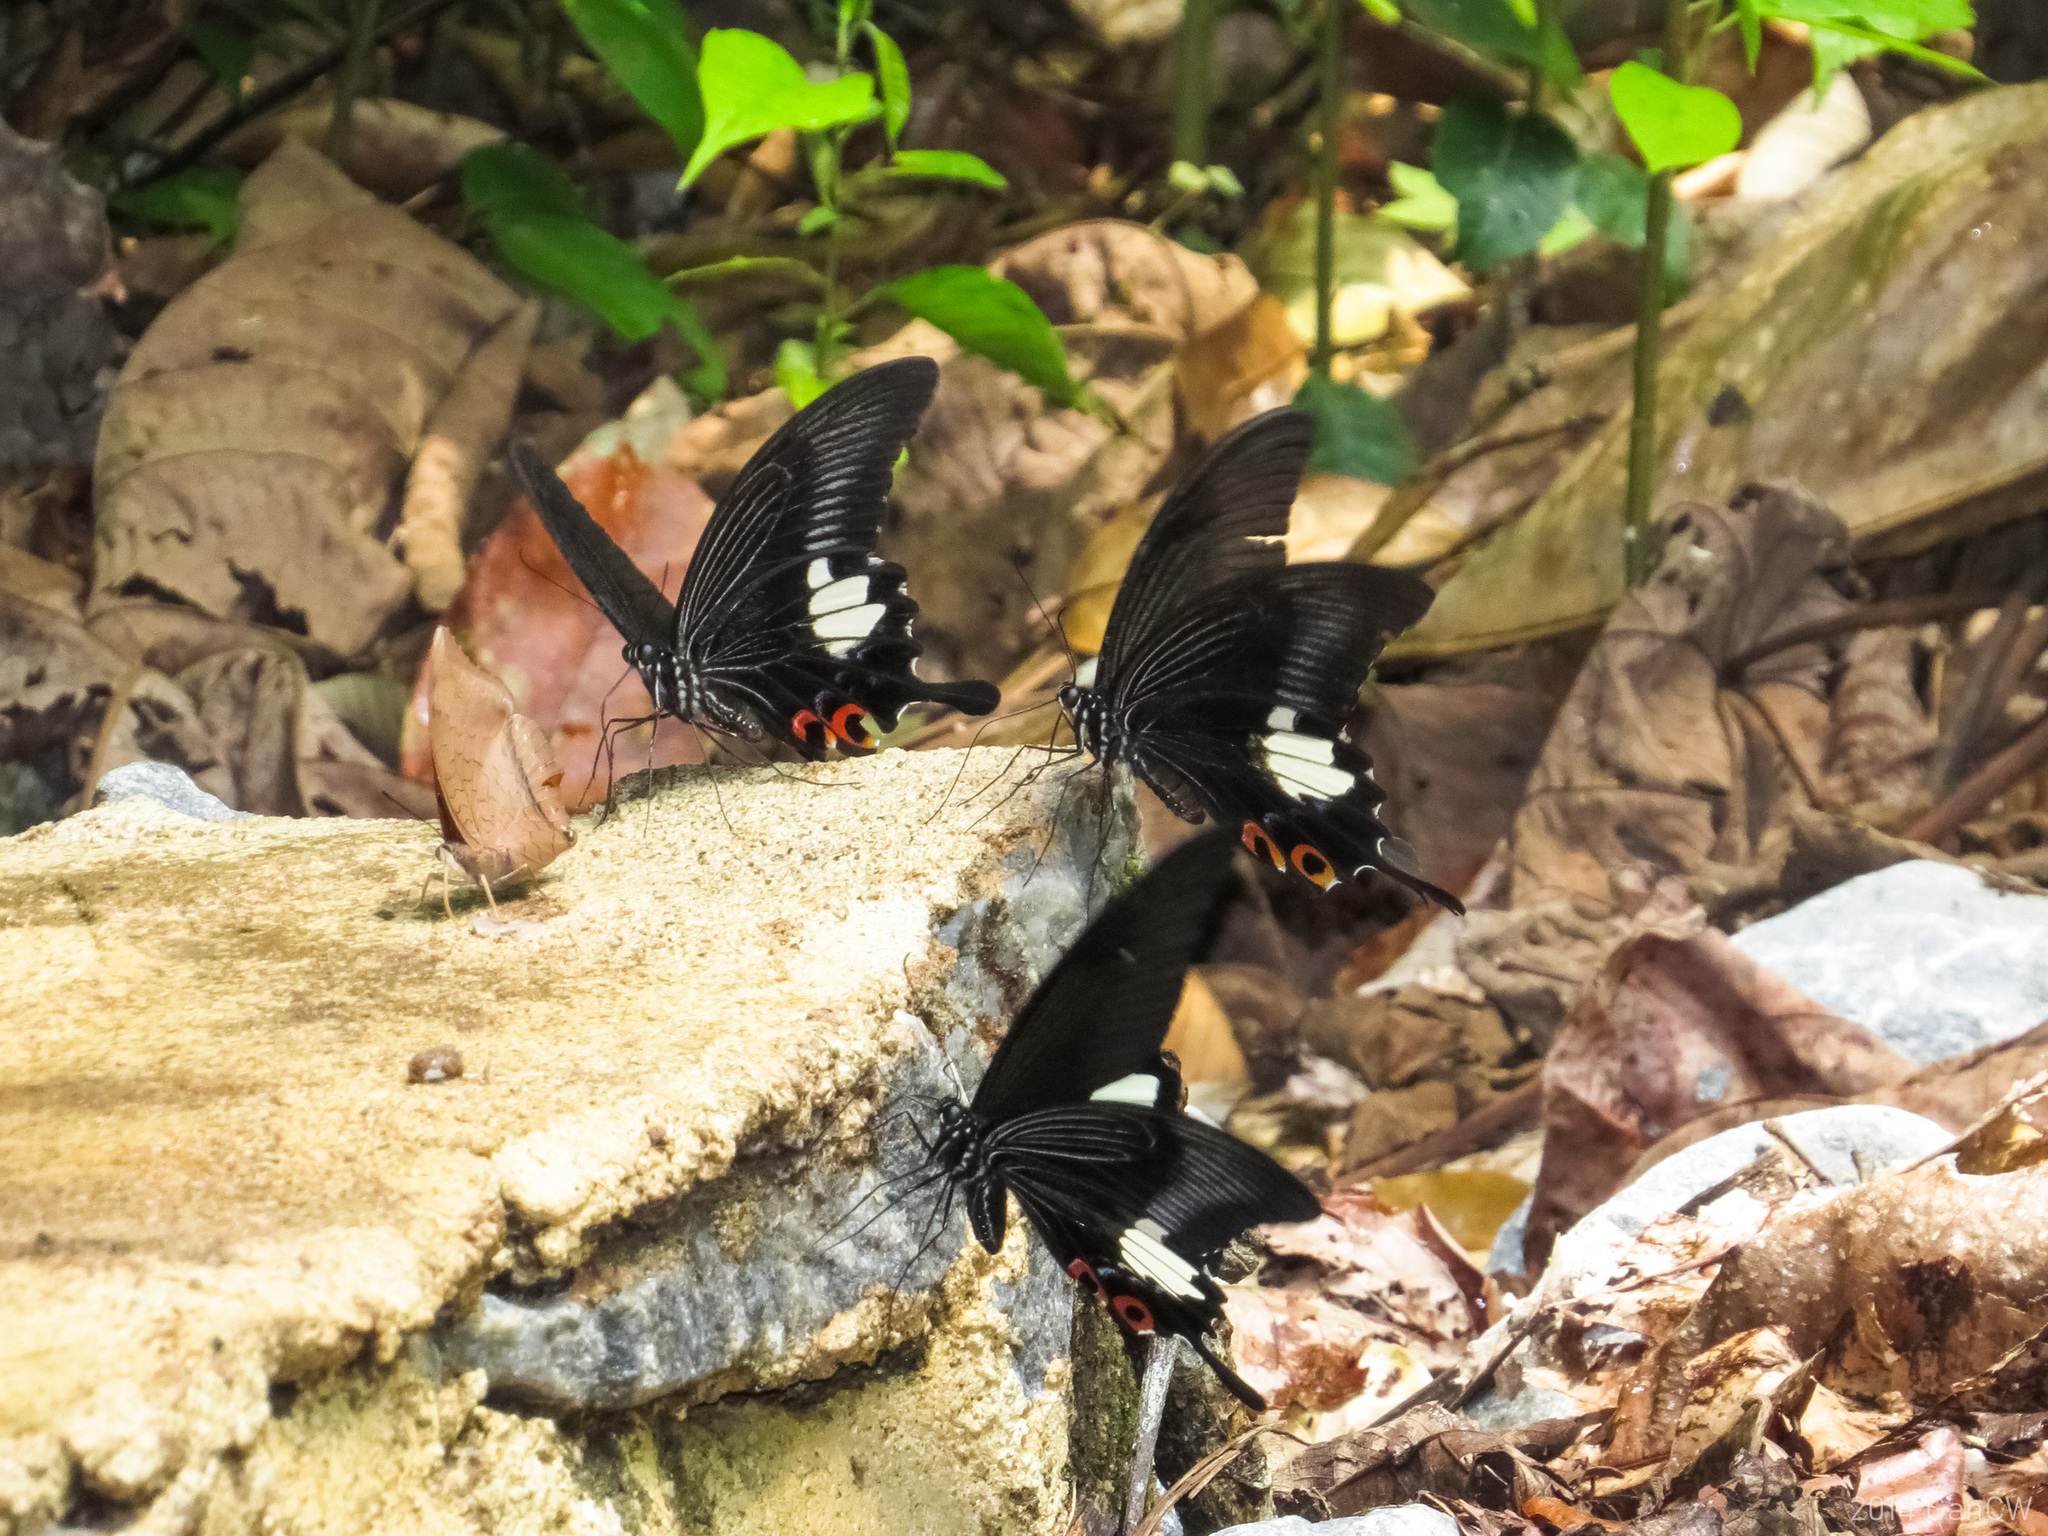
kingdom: Animalia
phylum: Arthropoda
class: Insecta
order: Lepidoptera
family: Papilionidae
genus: Papilio
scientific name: Papilio iswara
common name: Great helen swallowtail
